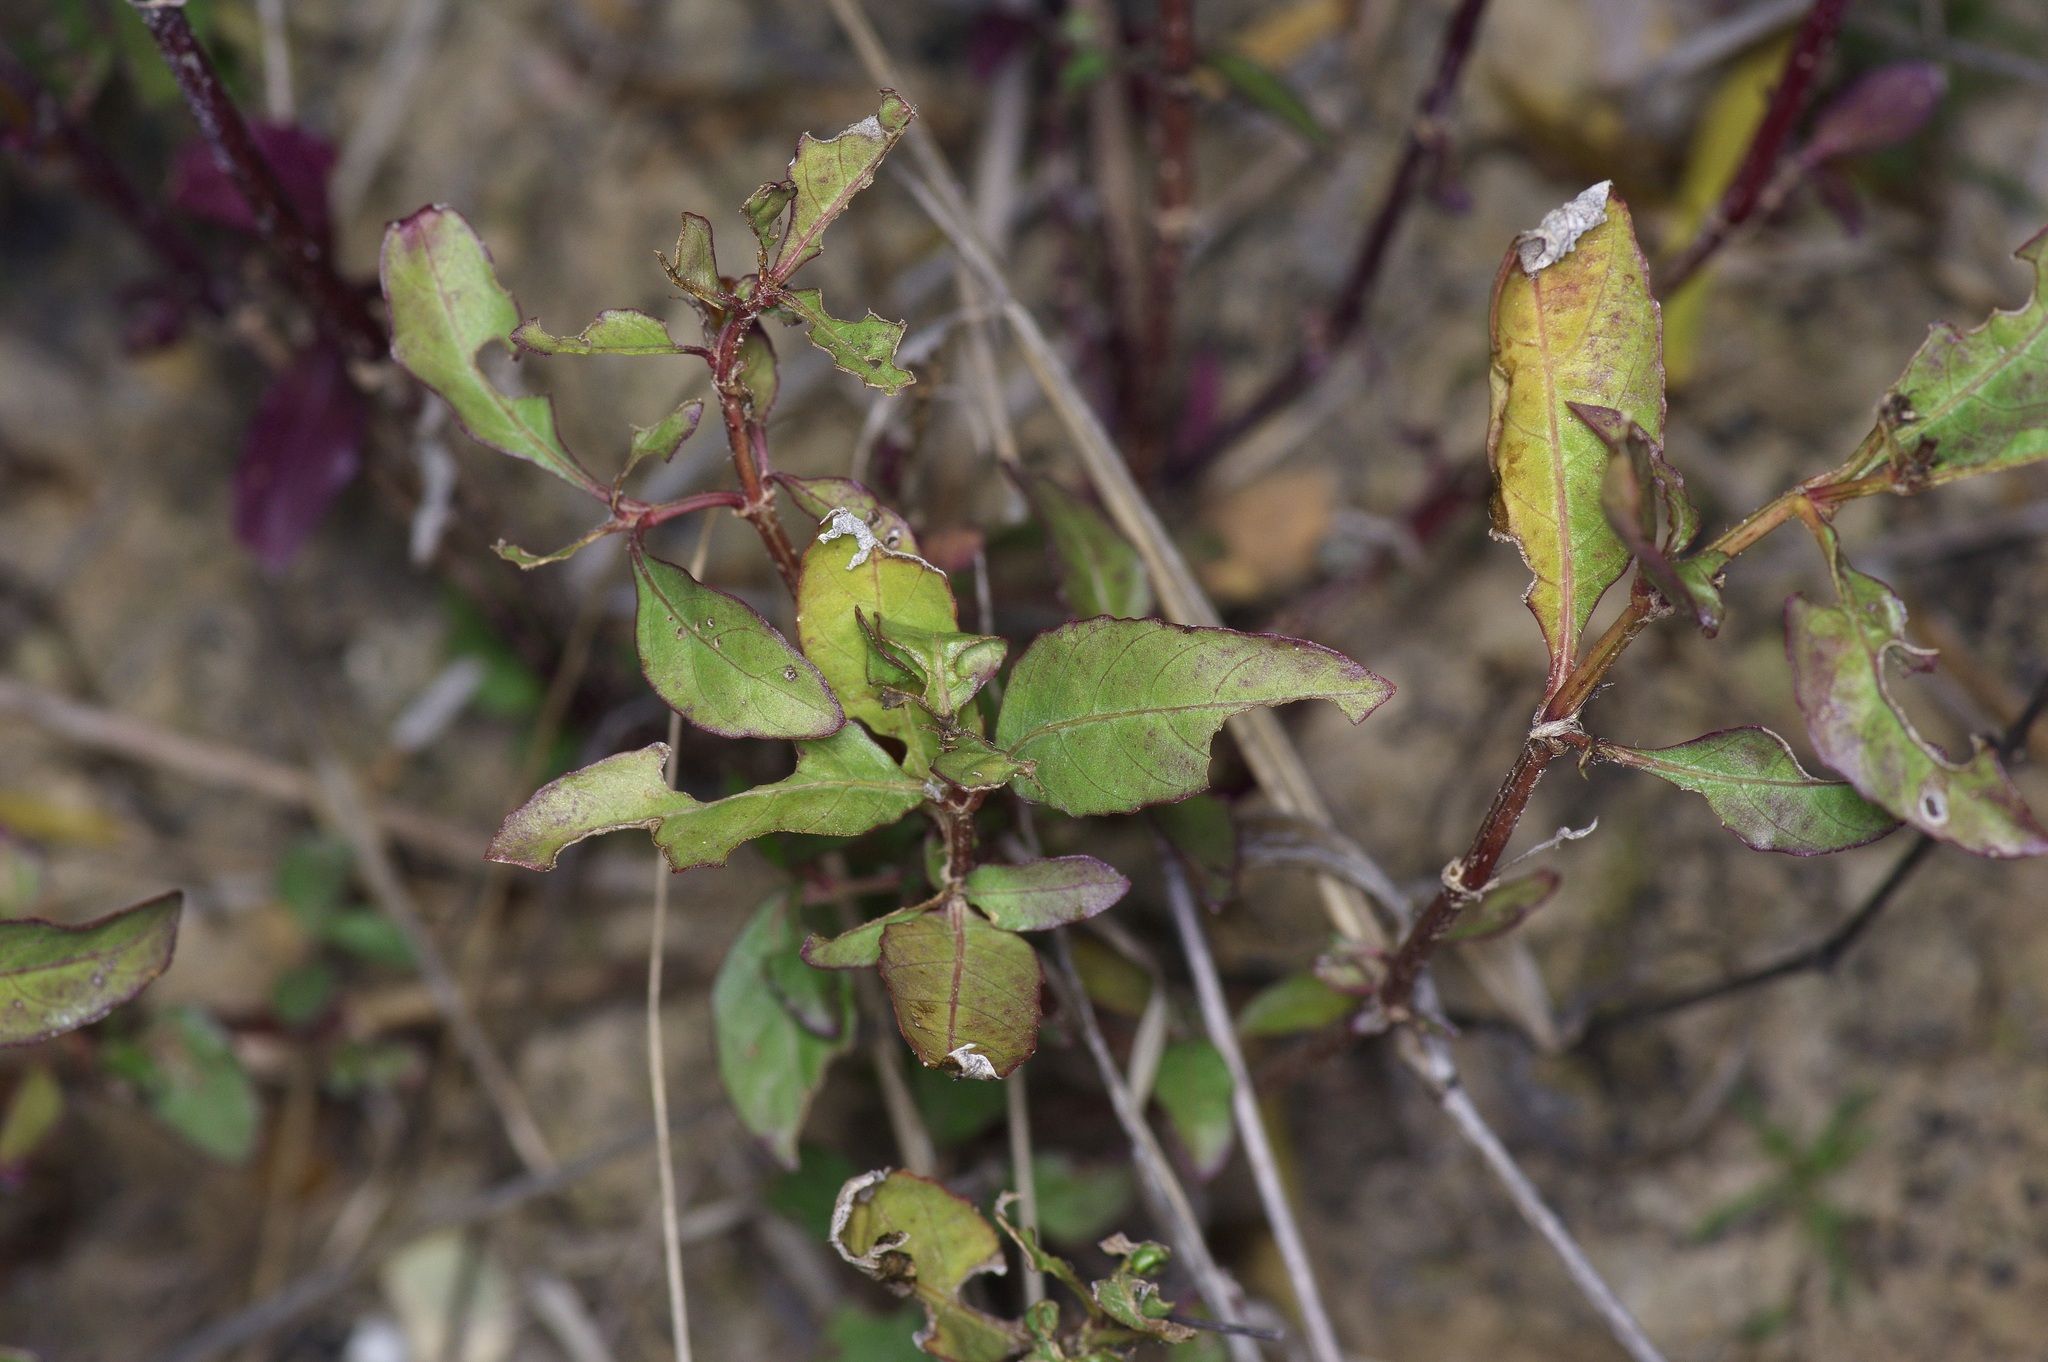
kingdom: Plantae
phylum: Tracheophyta
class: Magnoliopsida
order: Lamiales
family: Acanthaceae
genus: Ruellia
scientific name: Ruellia ciliatiflora
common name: Hairyflower wild petunia
